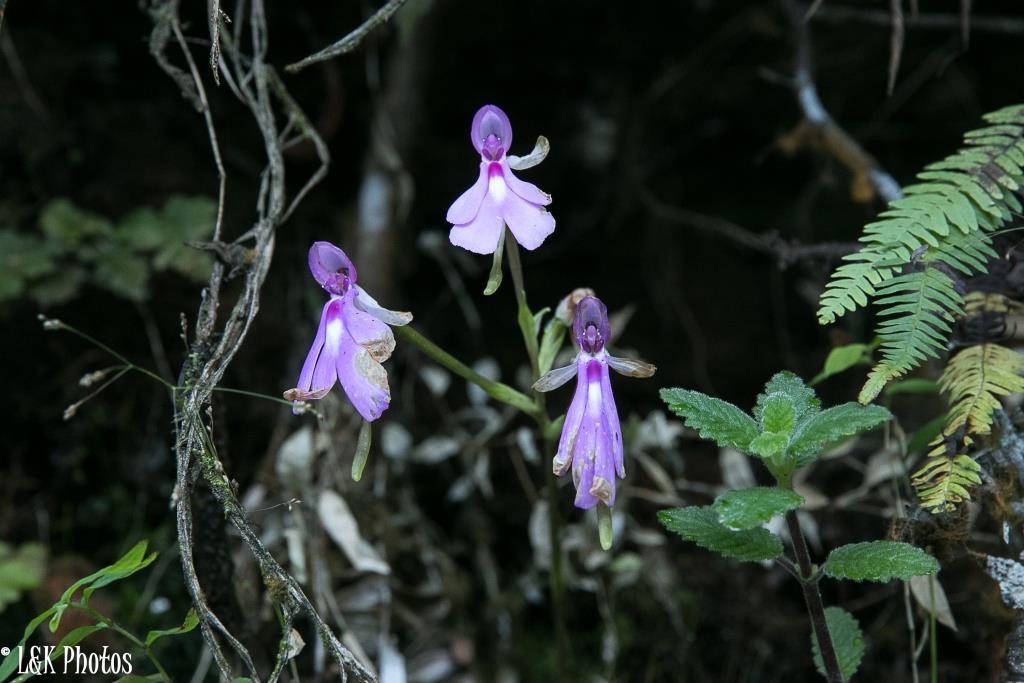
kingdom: Plantae
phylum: Tracheophyta
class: Liliopsida
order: Asparagales
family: Orchidaceae
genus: Cynorkis
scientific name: Cynorkis lowiana
